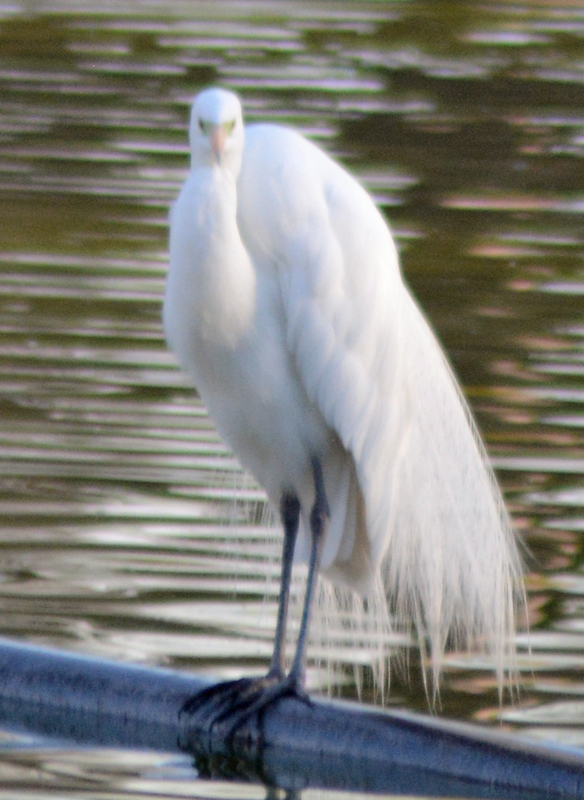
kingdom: Animalia
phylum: Chordata
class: Aves
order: Pelecaniformes
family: Ardeidae
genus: Ardea
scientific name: Ardea alba
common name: Great egret
